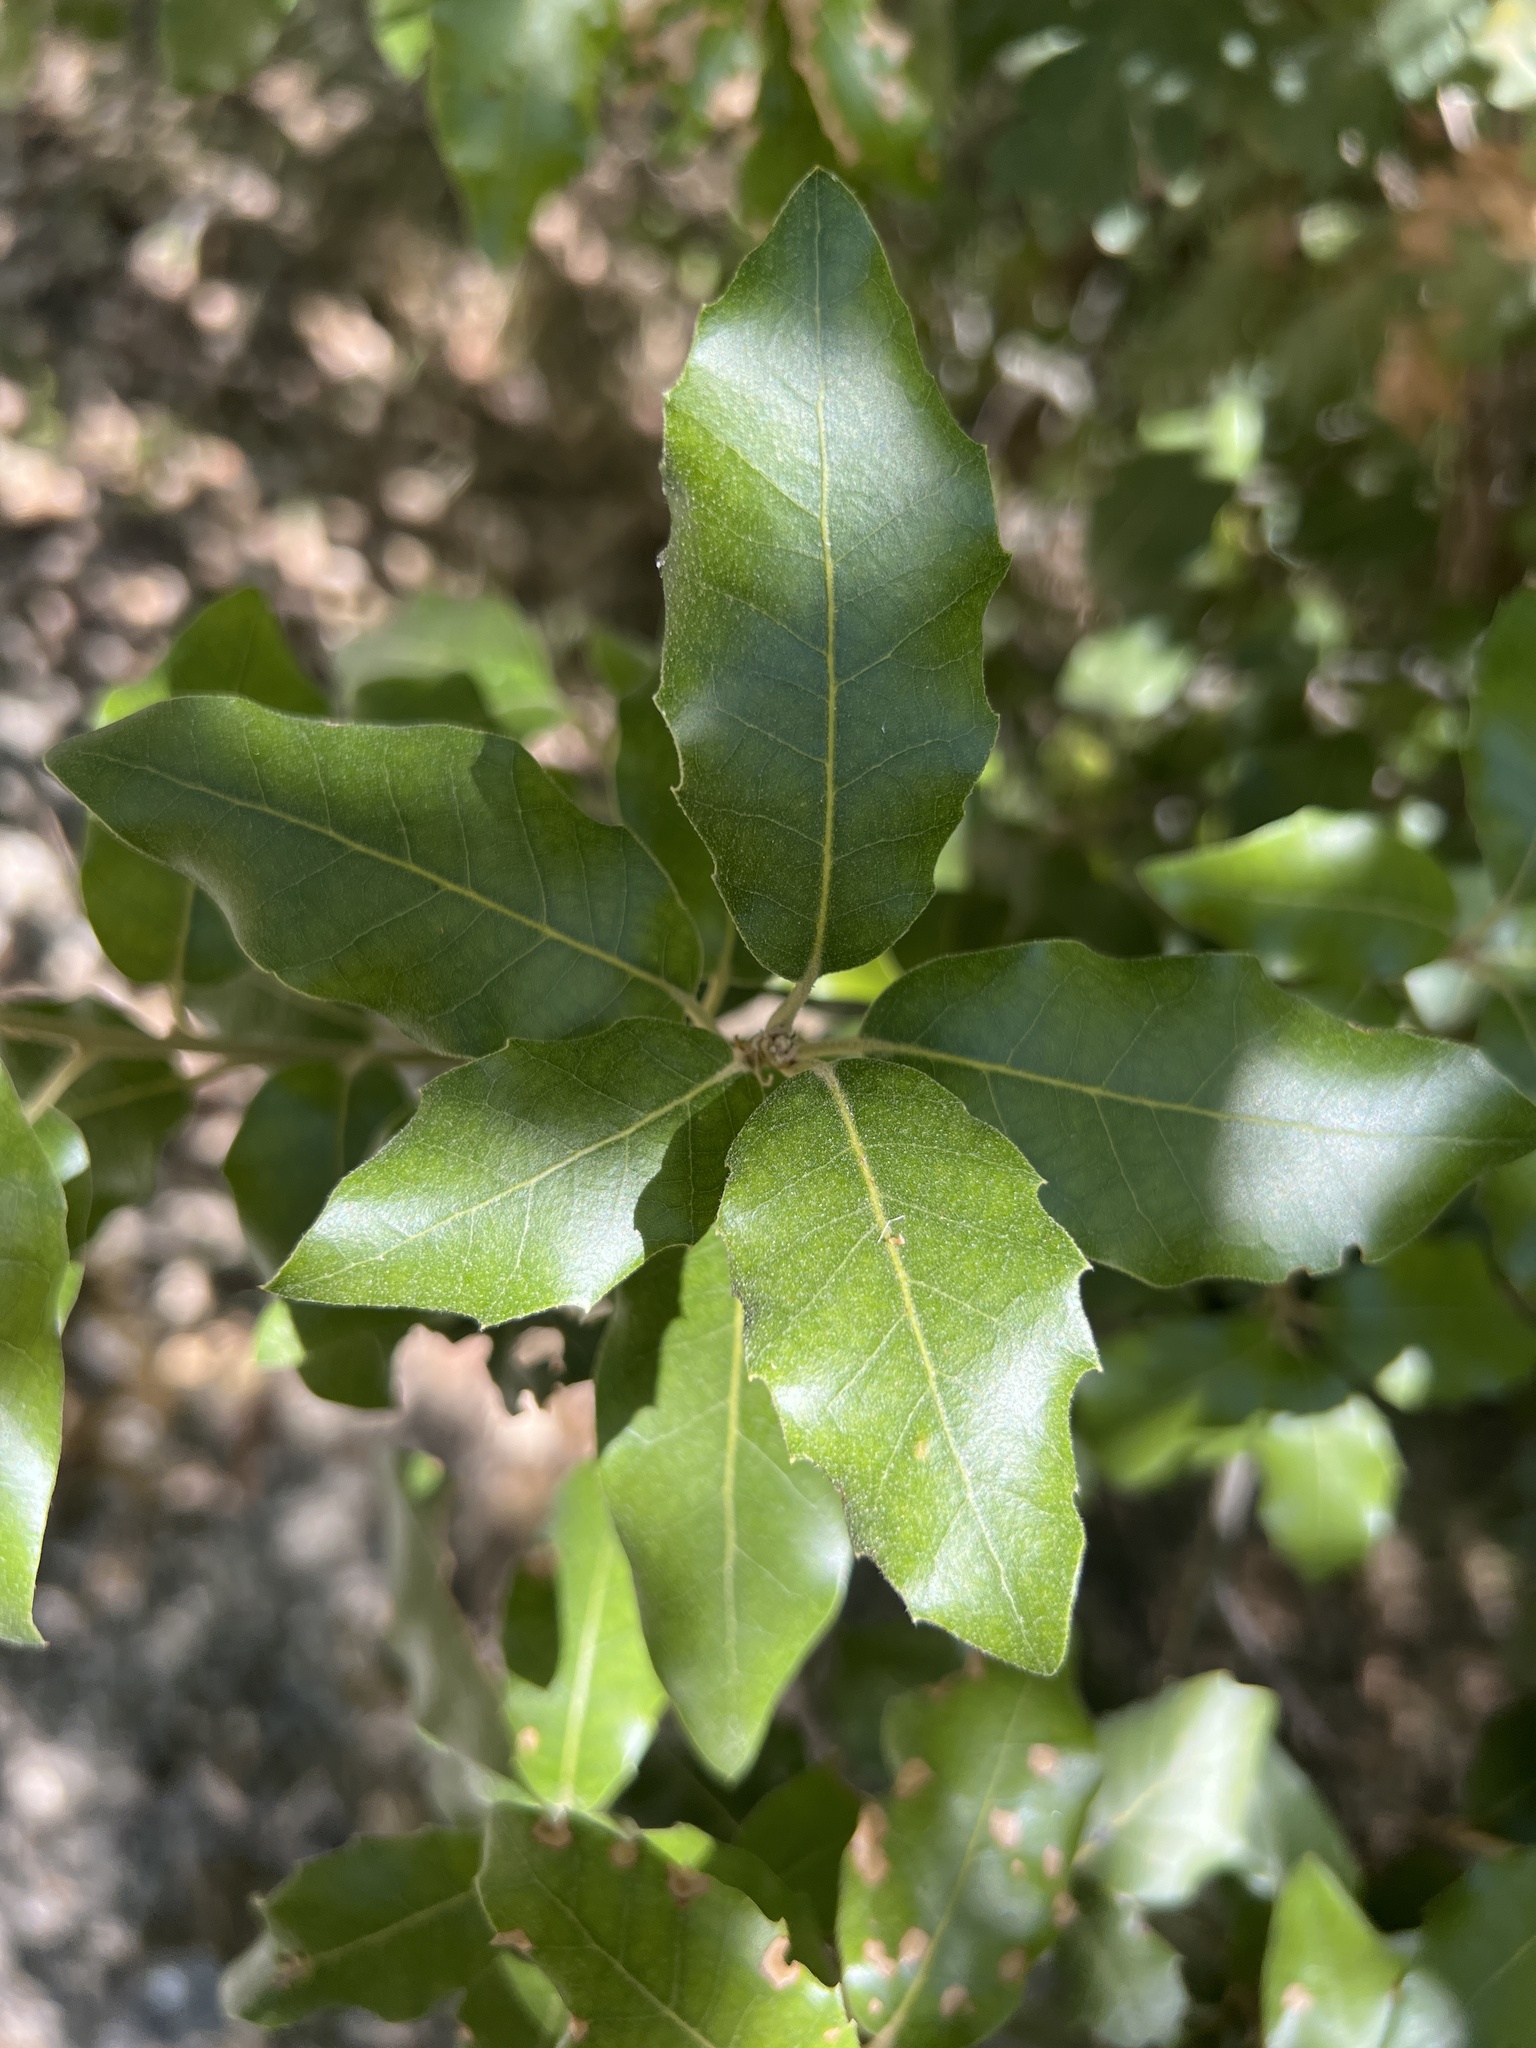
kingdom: Plantae
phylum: Tracheophyta
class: Magnoliopsida
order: Fagales
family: Fagaceae
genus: Quercus
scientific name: Quercus ilex
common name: Evergreen oak
